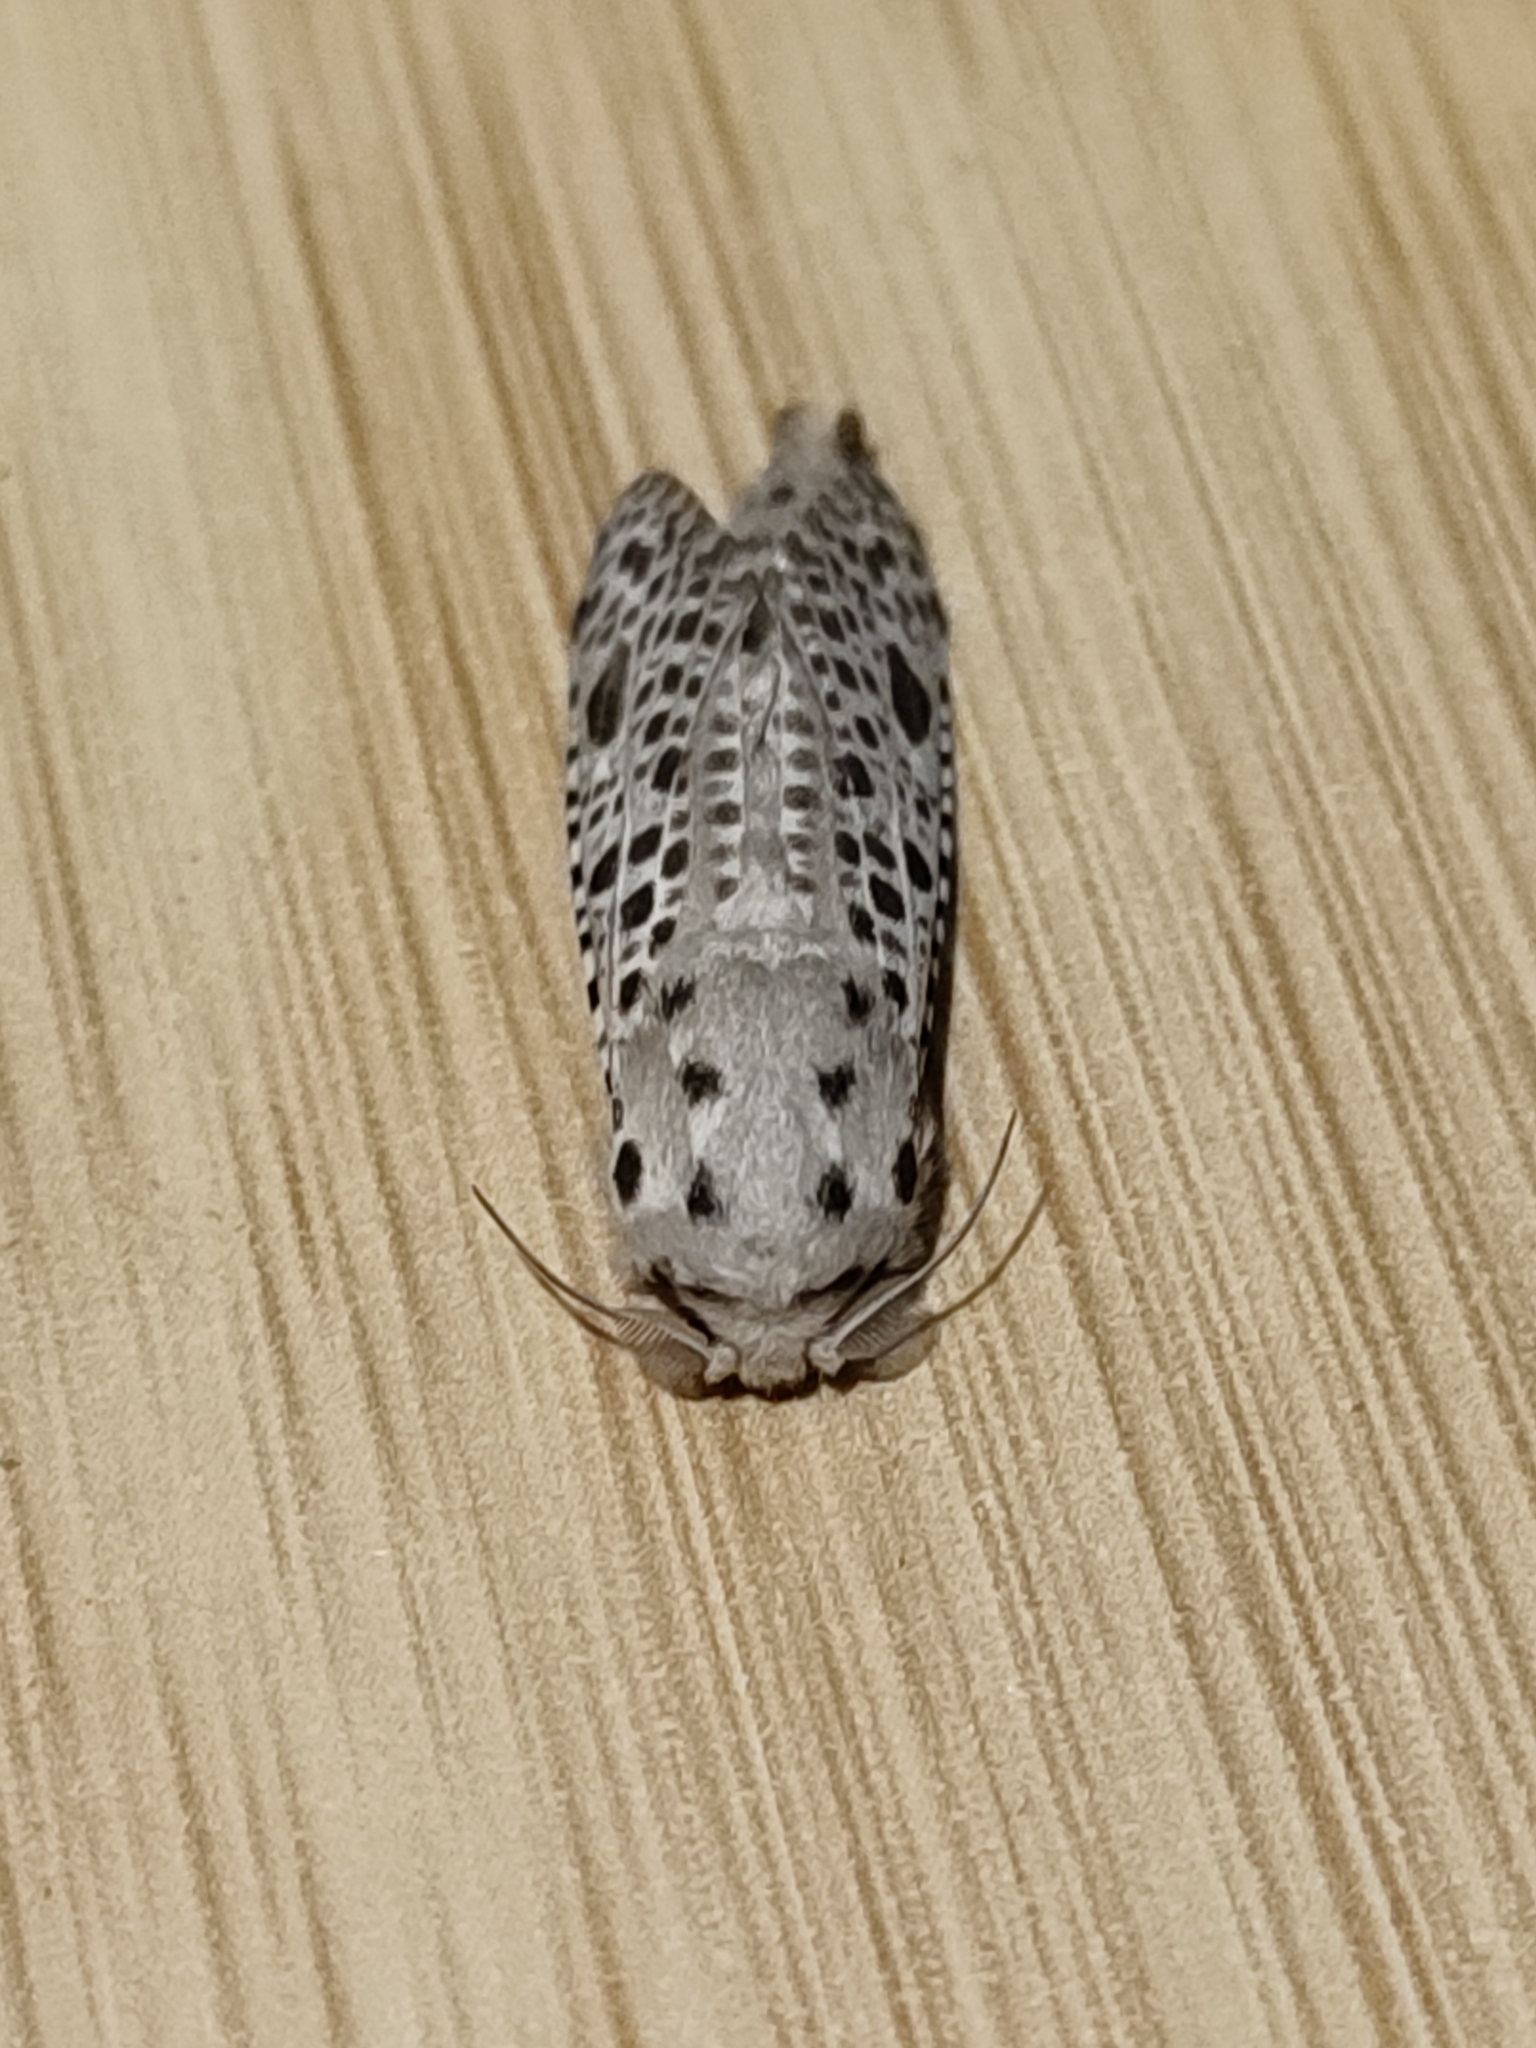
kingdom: Animalia
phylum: Arthropoda
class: Insecta
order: Lepidoptera
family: Cossidae
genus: Zeuzera
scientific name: Zeuzera multistrigata
